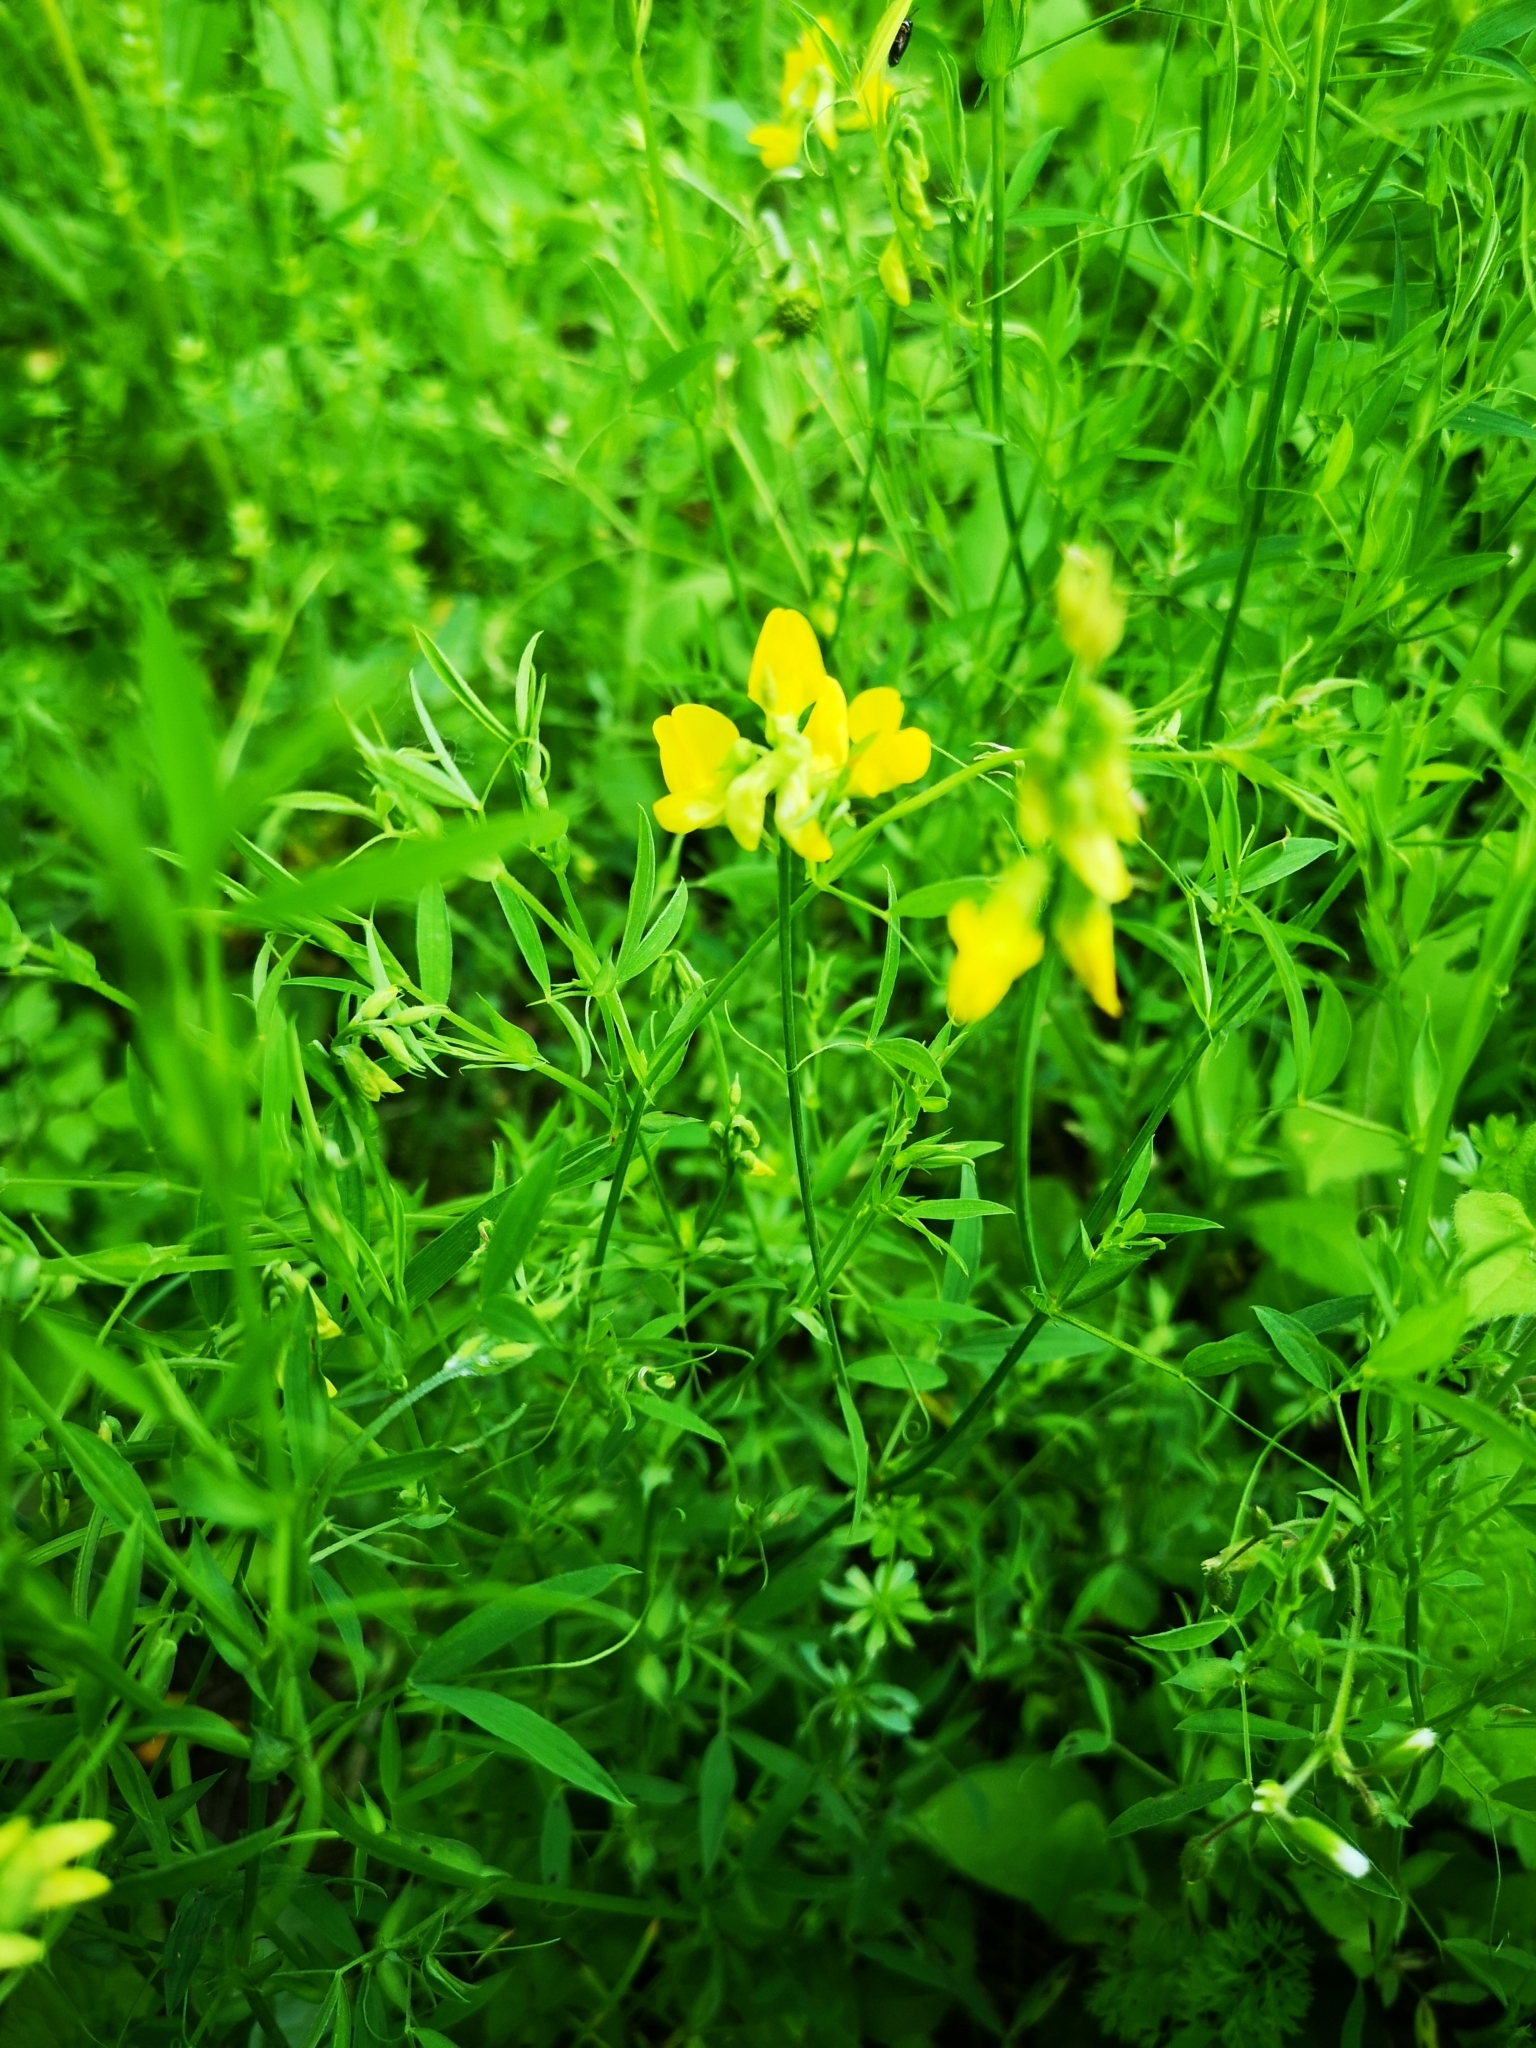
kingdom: Plantae
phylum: Tracheophyta
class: Magnoliopsida
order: Fabales
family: Fabaceae
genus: Lathyrus
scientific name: Lathyrus pratensis
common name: Meadow vetchling
